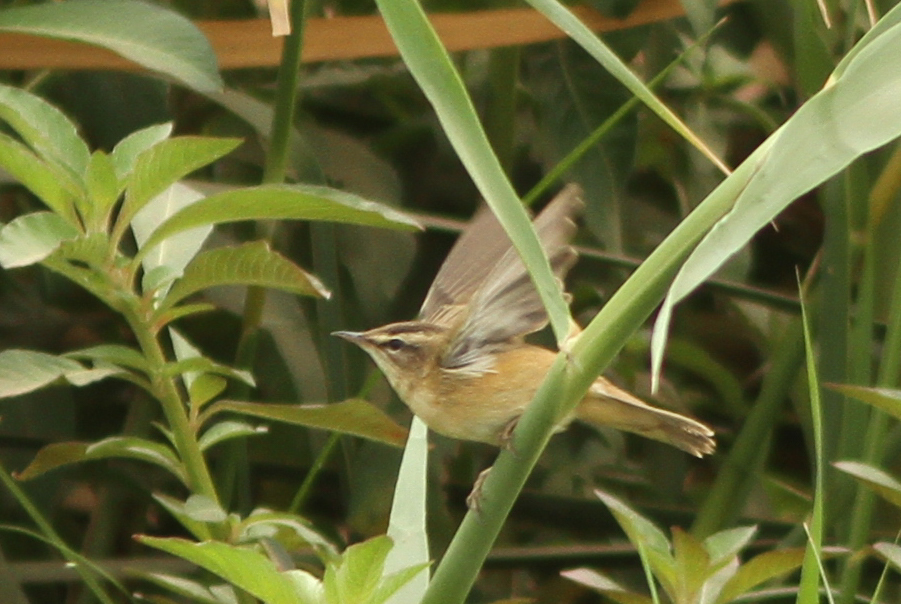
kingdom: Animalia
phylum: Chordata
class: Aves
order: Passeriformes
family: Acrocephalidae
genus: Acrocephalus
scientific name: Acrocephalus schoenobaenus
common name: Sedge warbler
